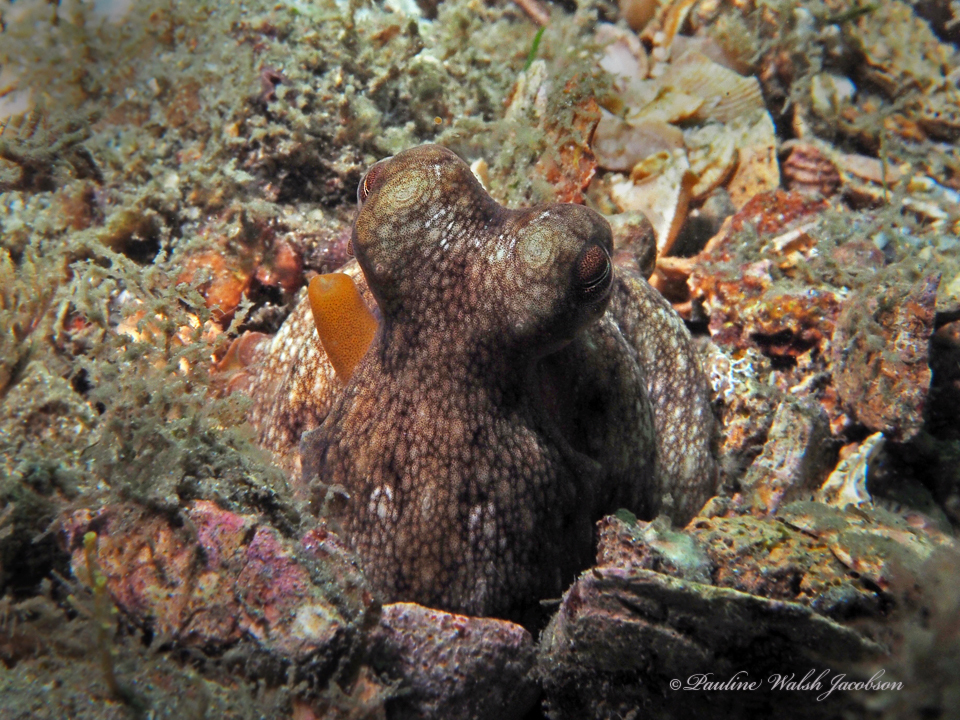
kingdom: Animalia
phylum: Mollusca
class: Cephalopoda
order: Octopoda
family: Octopodidae
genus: Octopus
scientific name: Octopus americanus
